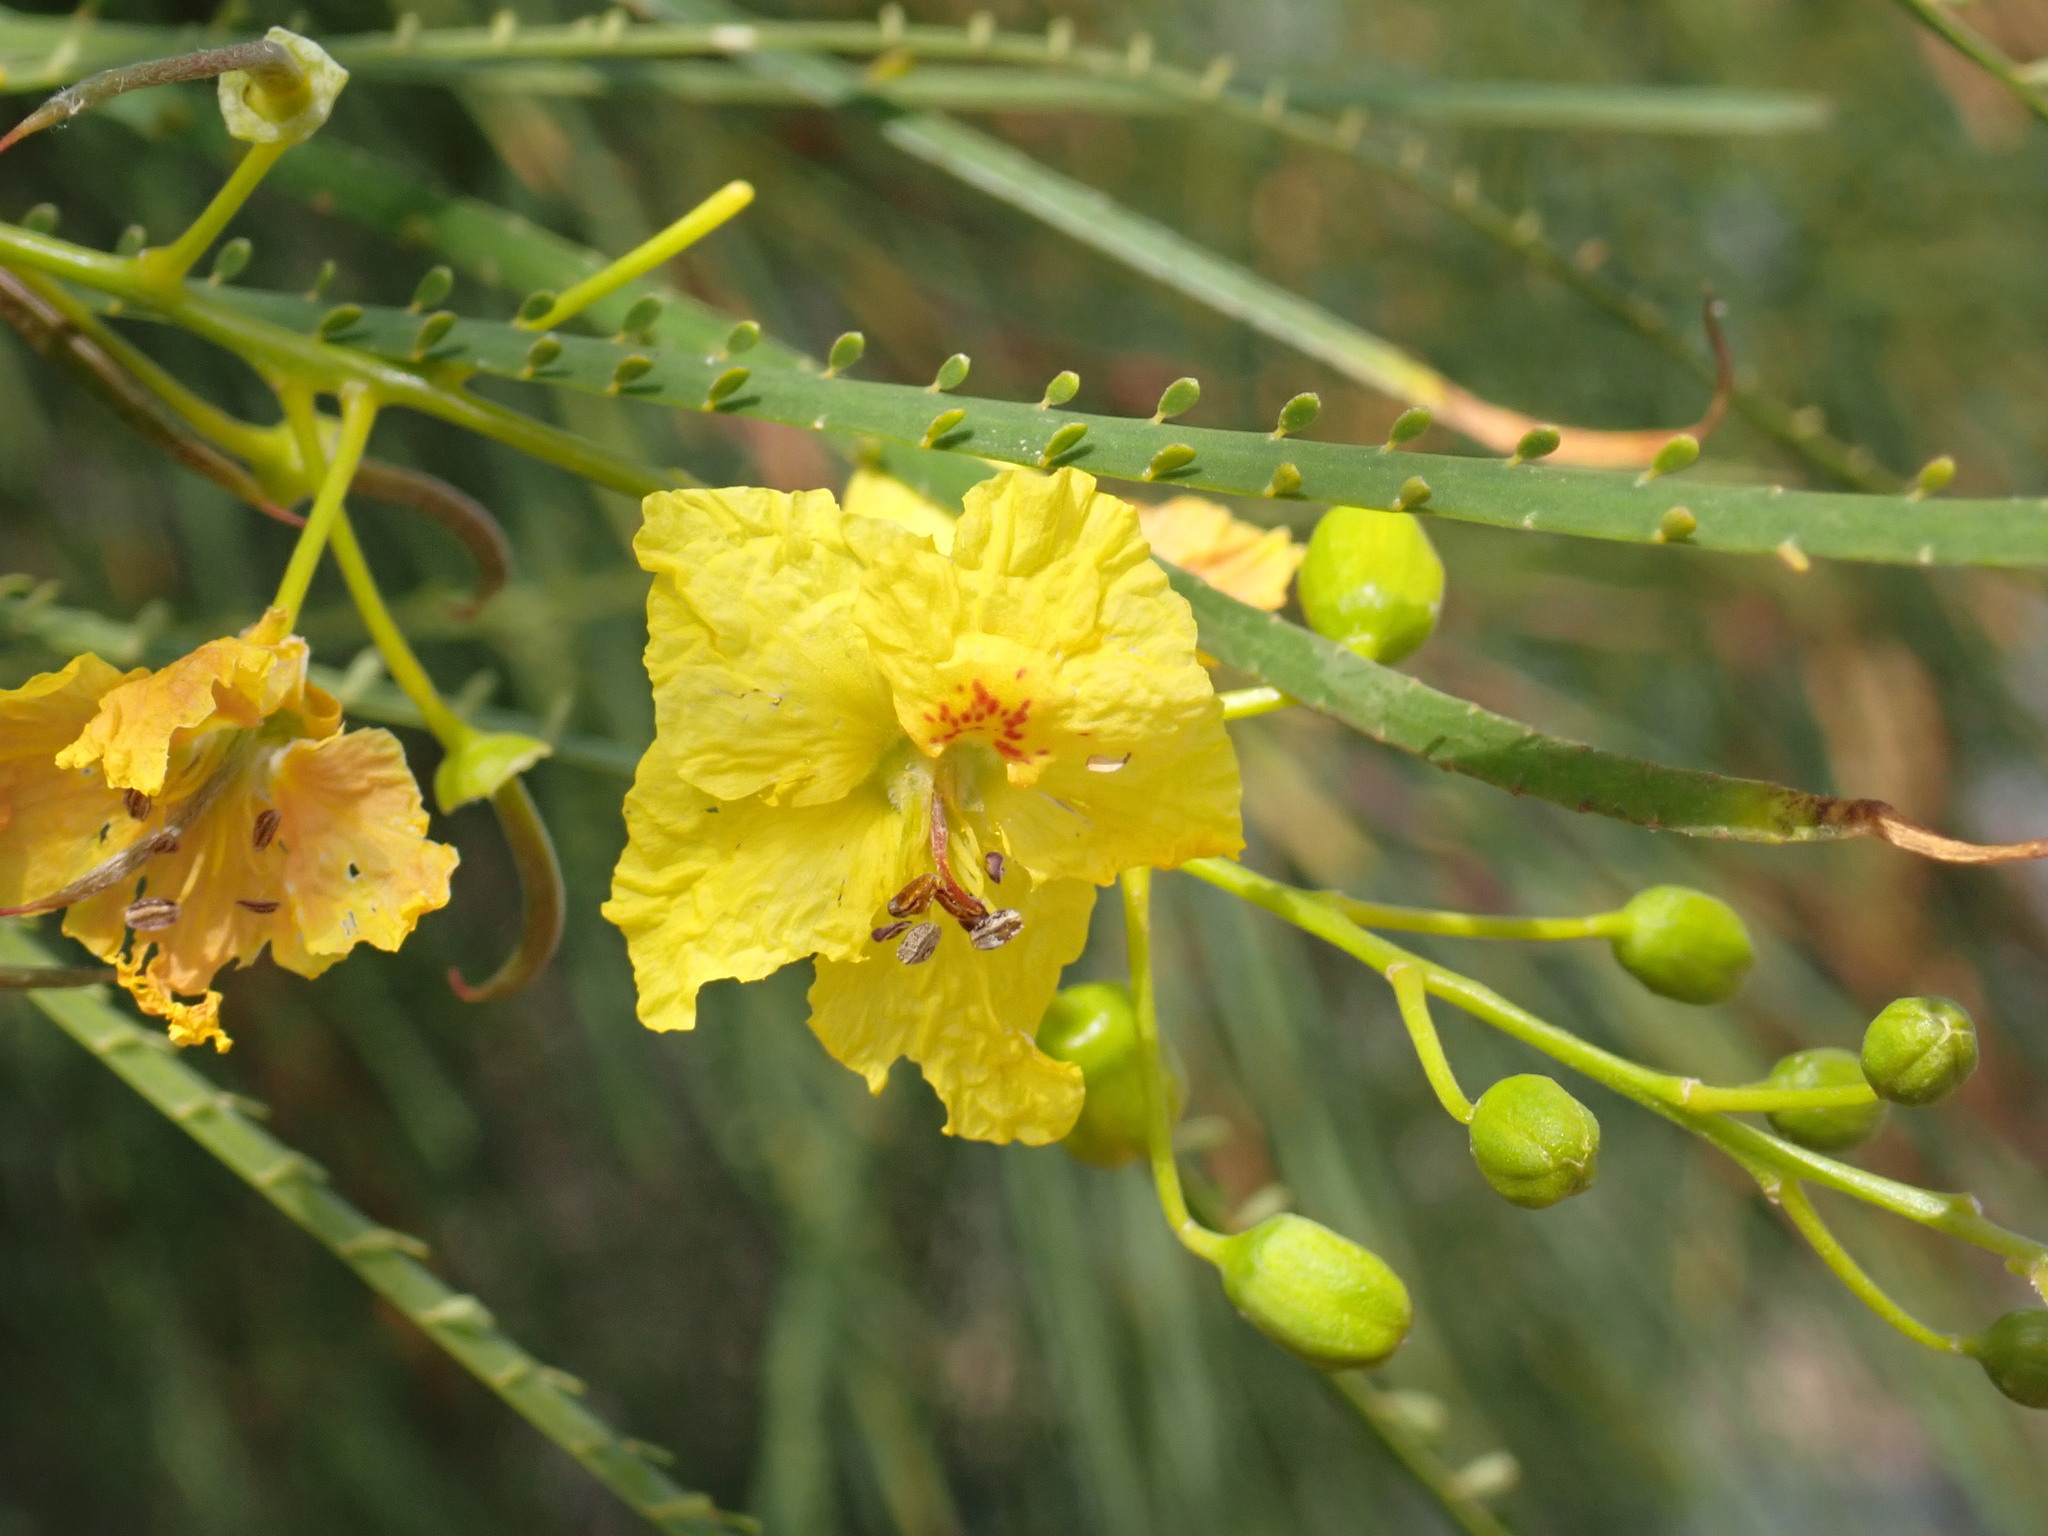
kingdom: Plantae
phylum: Tracheophyta
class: Magnoliopsida
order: Fabales
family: Fabaceae
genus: Parkinsonia
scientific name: Parkinsonia aculeata
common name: Jerusalem thorn
